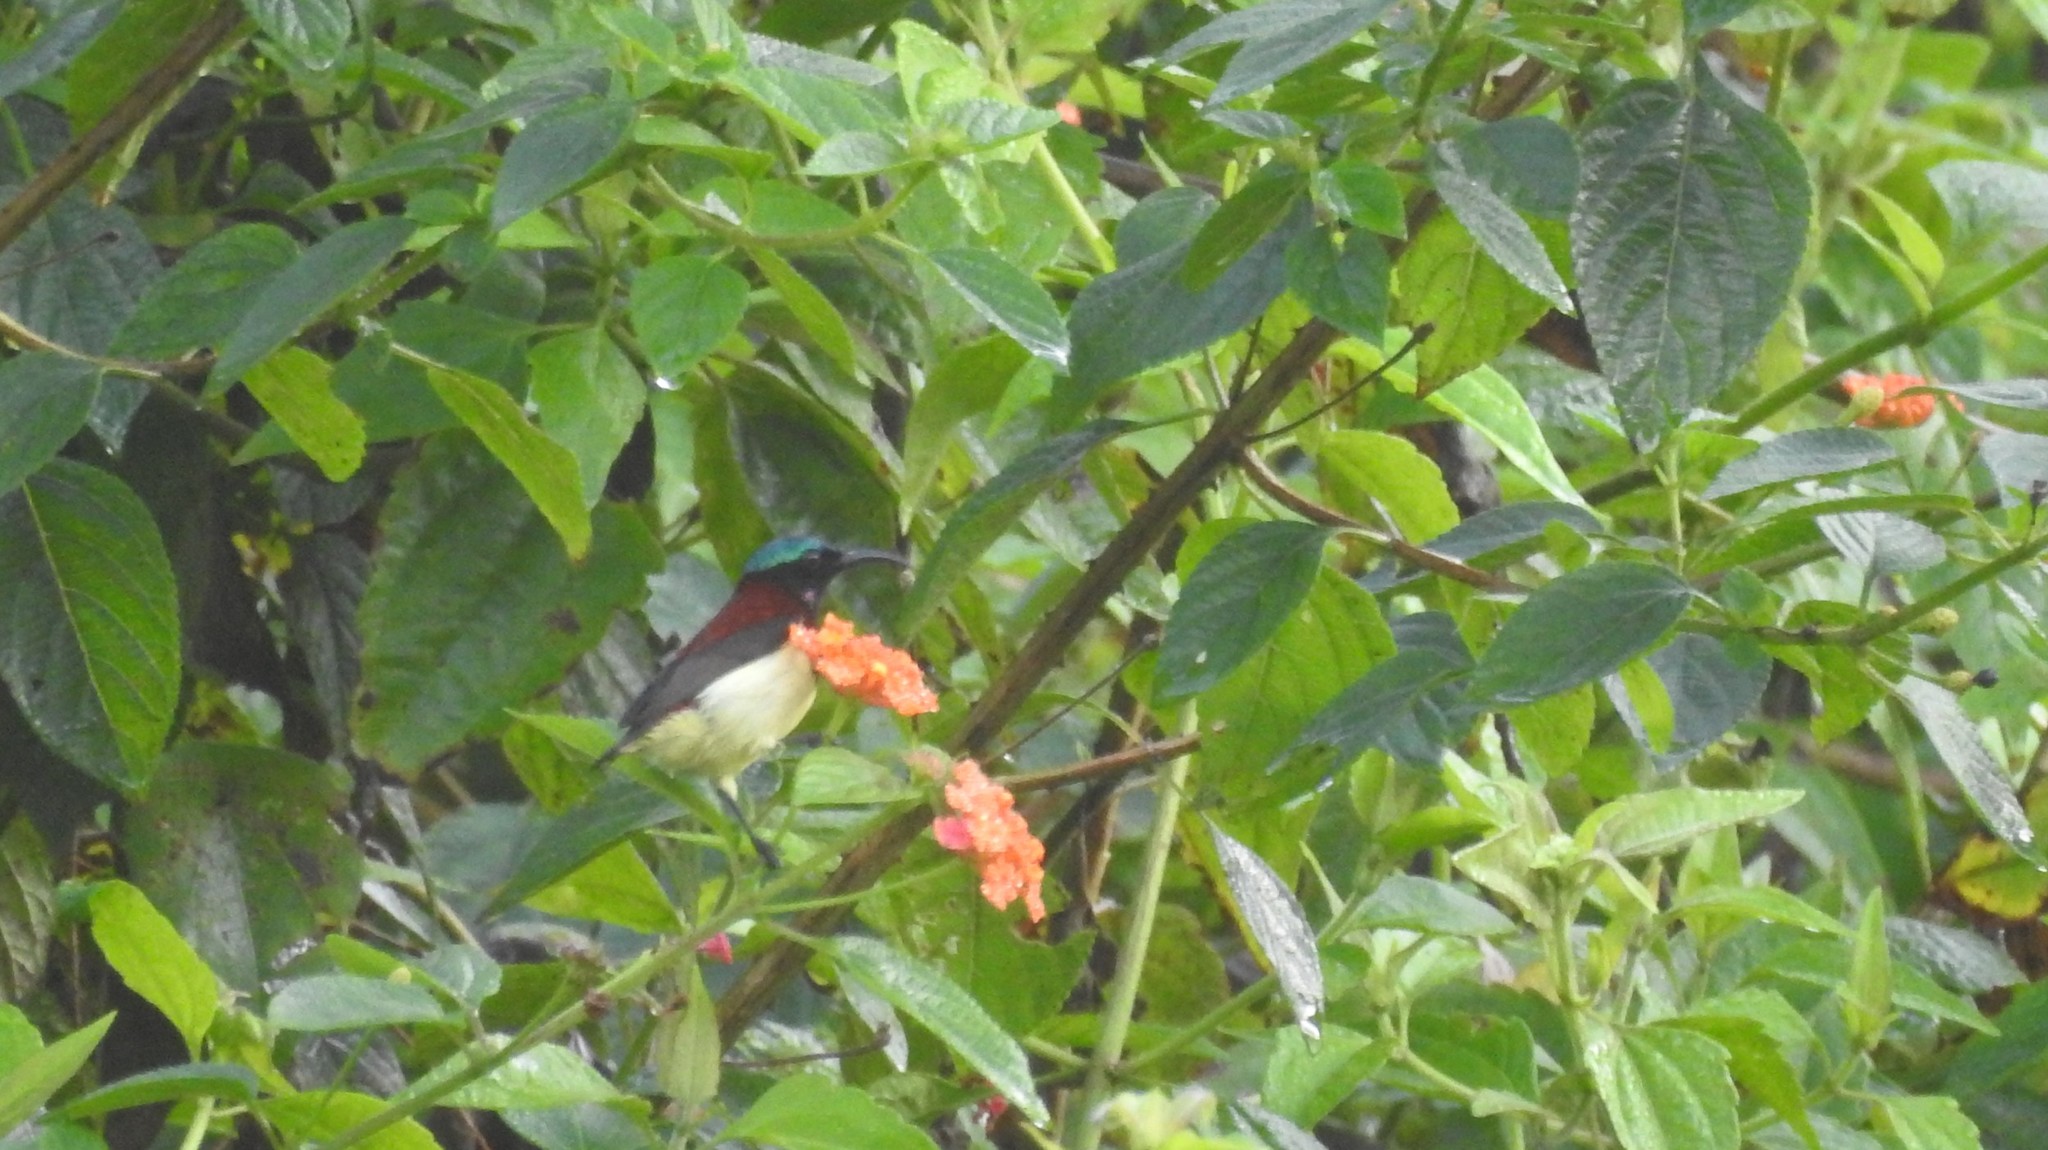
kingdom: Animalia
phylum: Chordata
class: Aves
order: Passeriformes
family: Nectariniidae
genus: Leptocoma
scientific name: Leptocoma minima
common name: Crimson-backed sunbird
